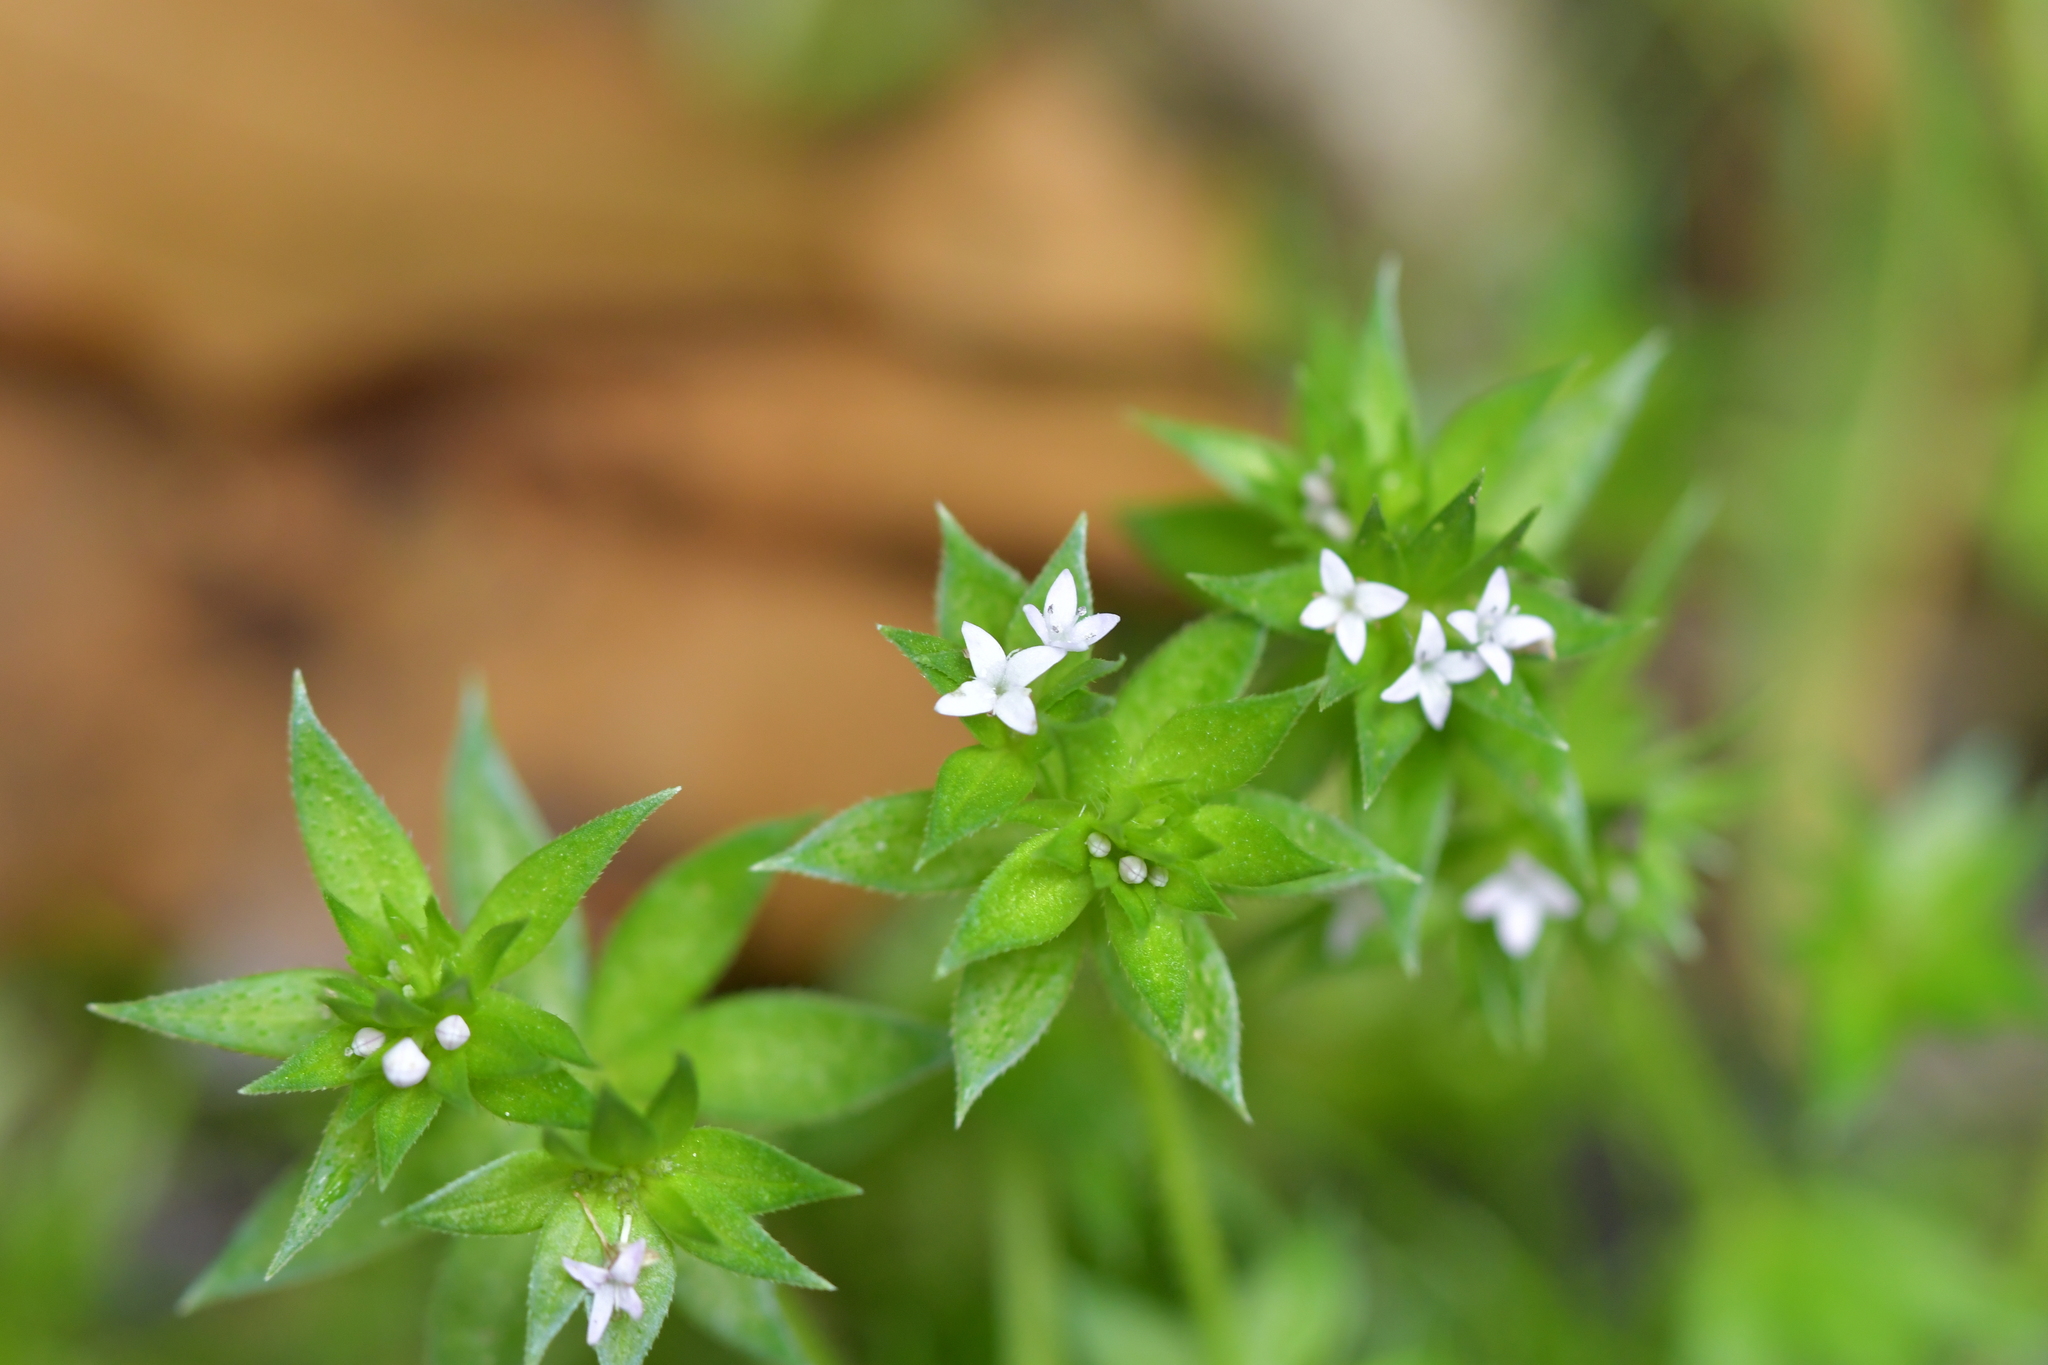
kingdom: Plantae
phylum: Tracheophyta
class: Magnoliopsida
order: Gentianales
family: Rubiaceae
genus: Sherardia
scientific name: Sherardia arvensis
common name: Field madder
